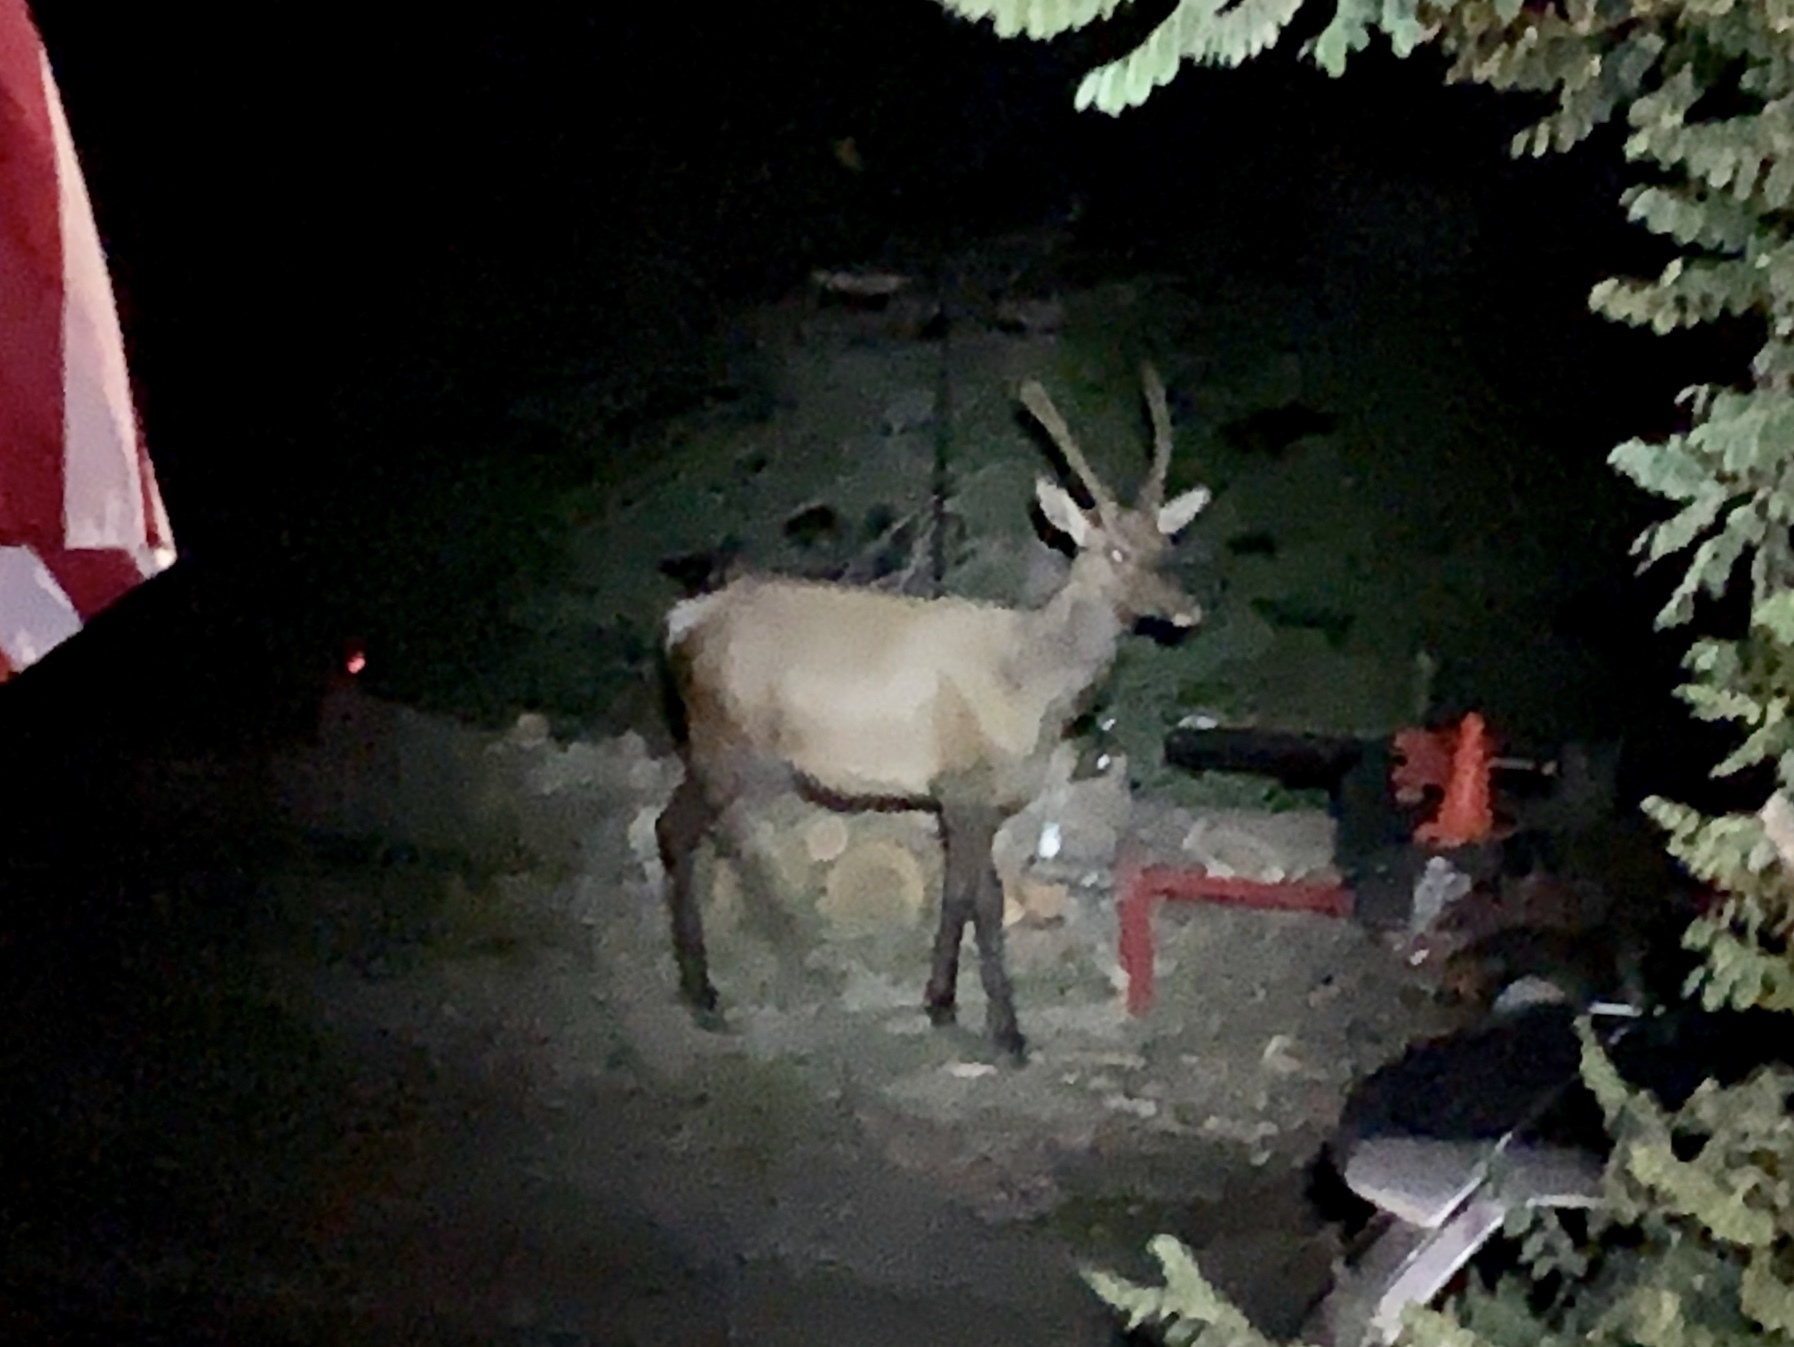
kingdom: Animalia
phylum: Chordata
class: Mammalia
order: Artiodactyla
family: Cervidae
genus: Cervus
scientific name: Cervus elaphus
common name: Red deer
